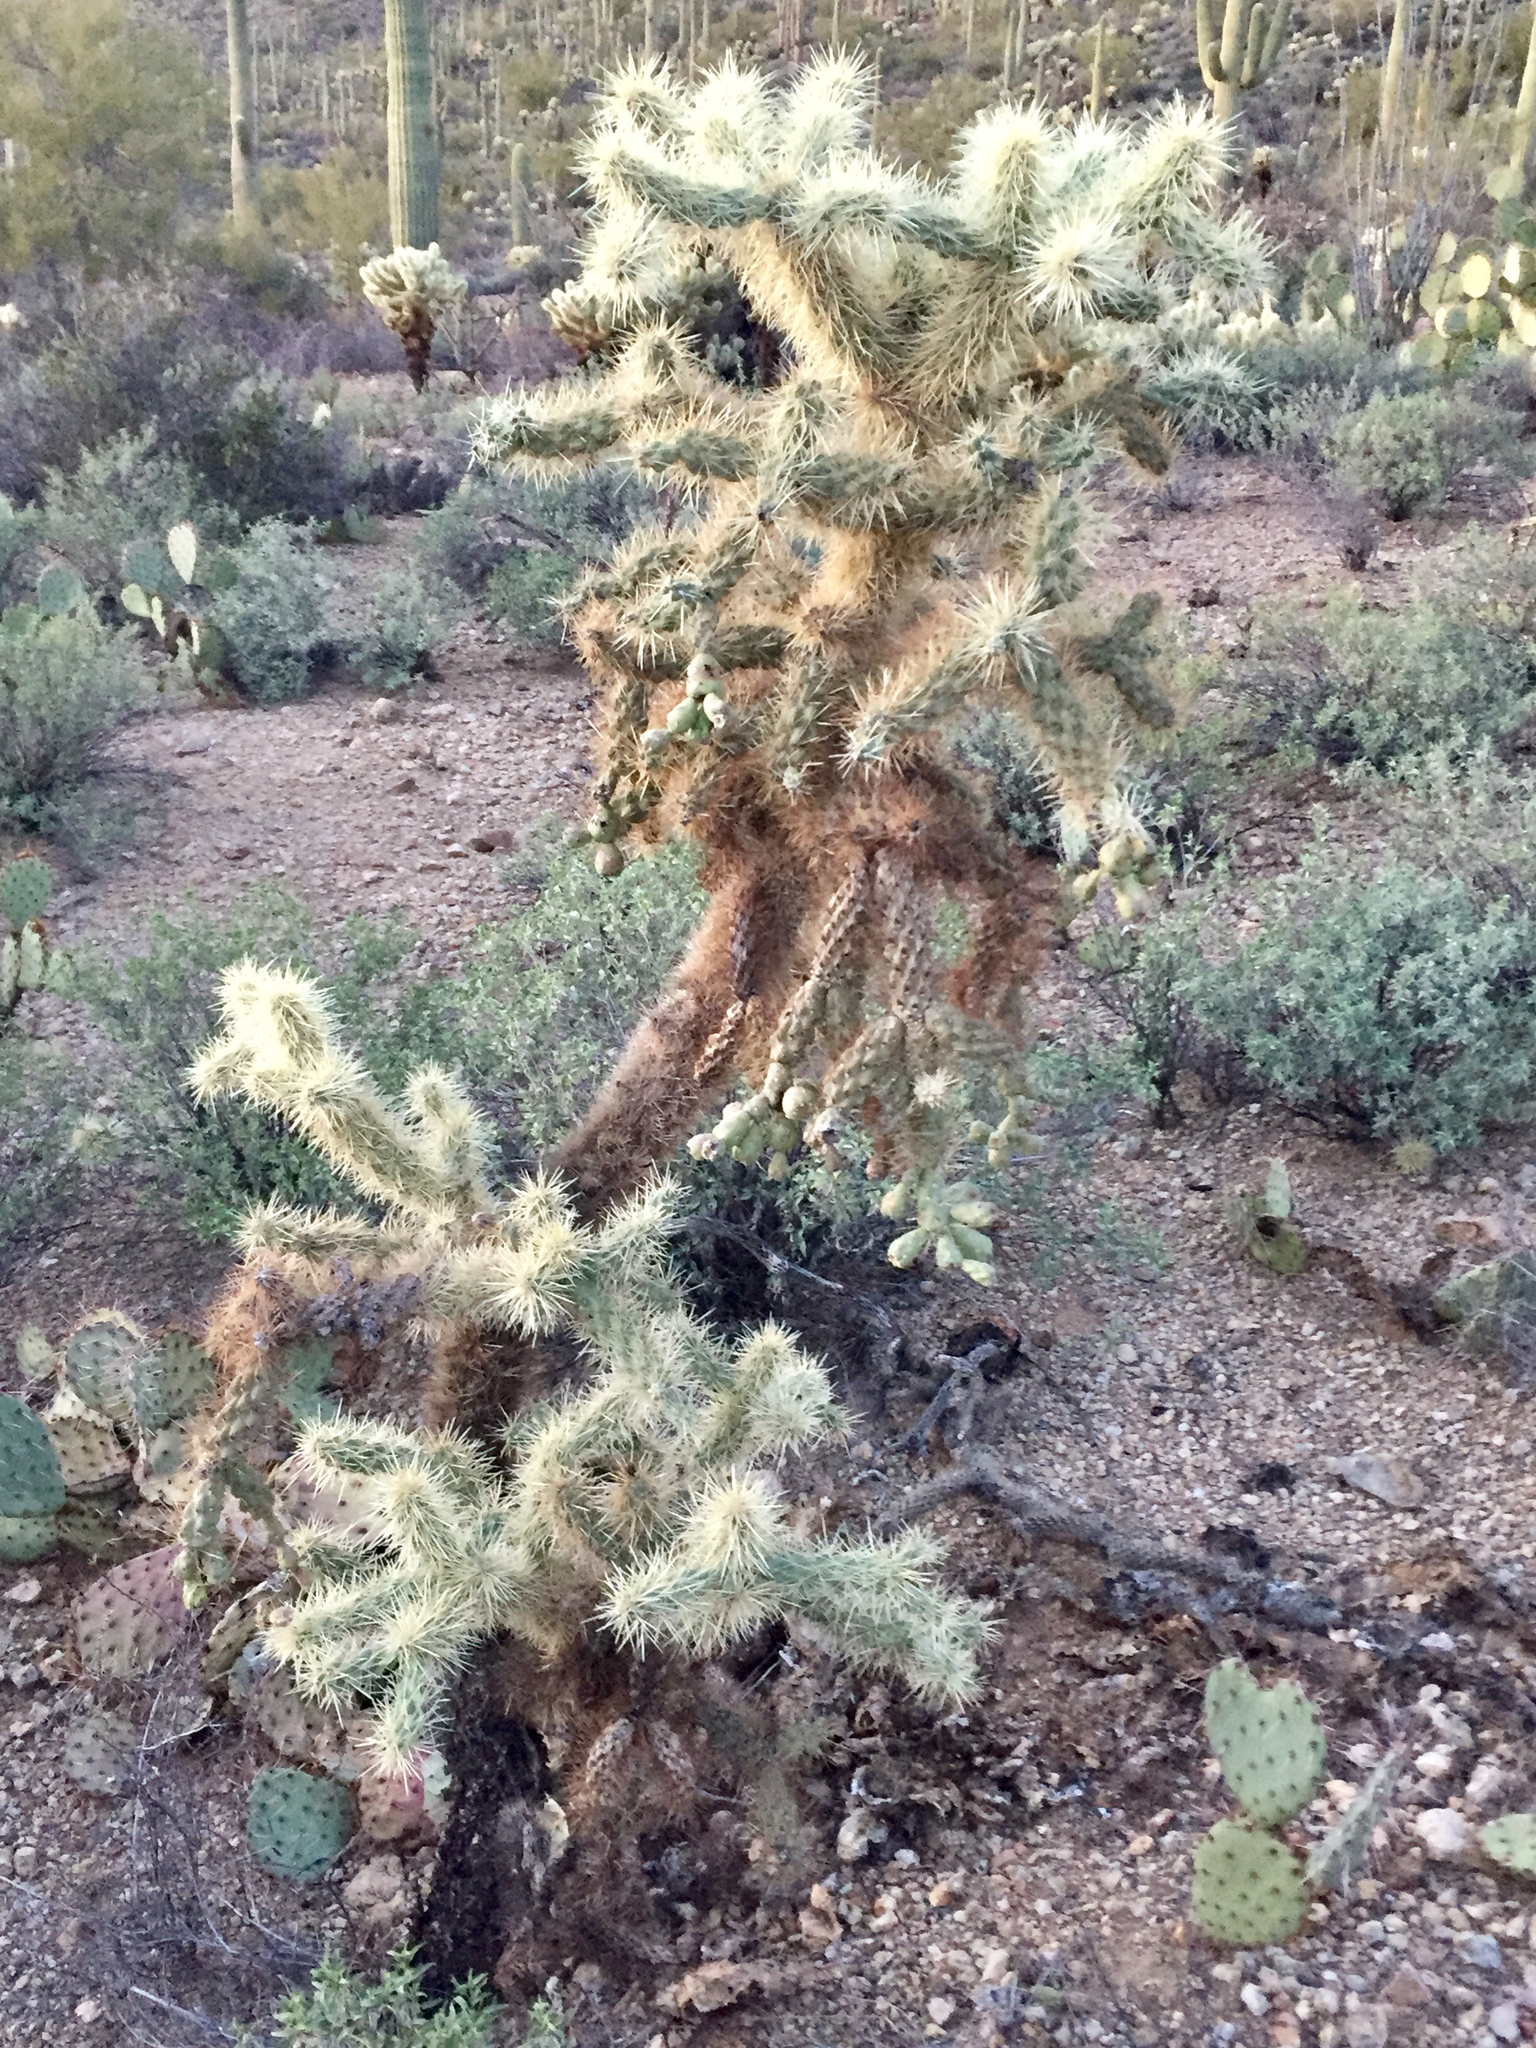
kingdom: Plantae
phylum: Tracheophyta
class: Magnoliopsida
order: Caryophyllales
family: Cactaceae
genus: Cylindropuntia
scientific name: Cylindropuntia fulgida
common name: Jumping cholla
